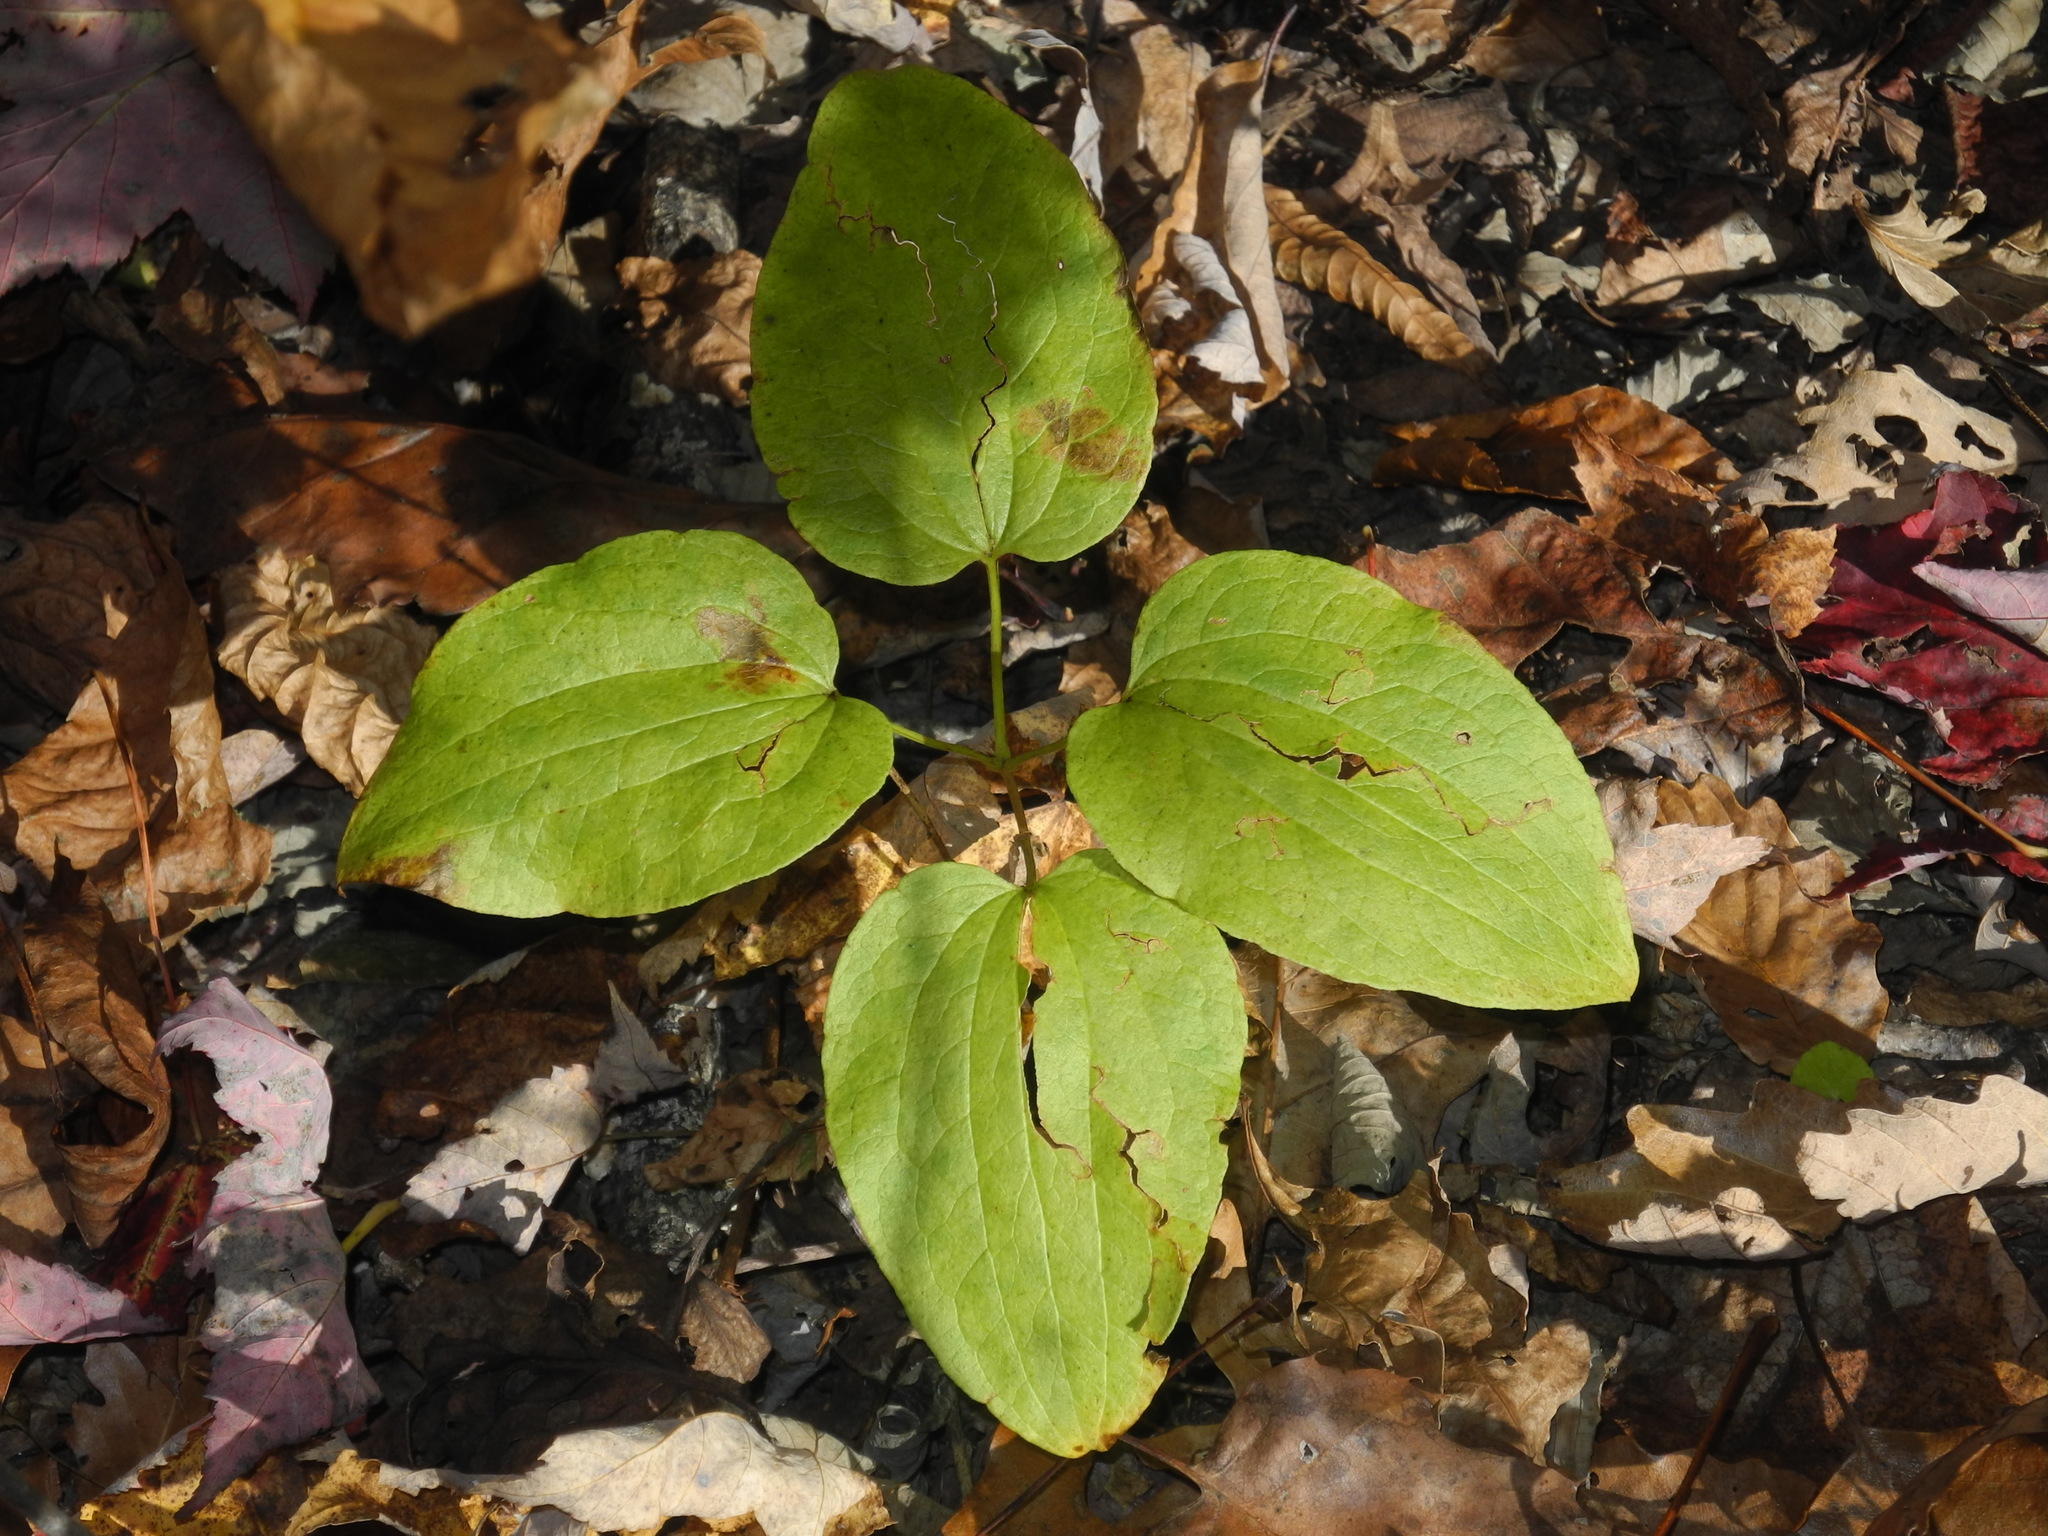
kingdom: Plantae
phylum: Tracheophyta
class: Liliopsida
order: Liliales
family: Smilacaceae
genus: Smilax
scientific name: Smilax biltmoreana
